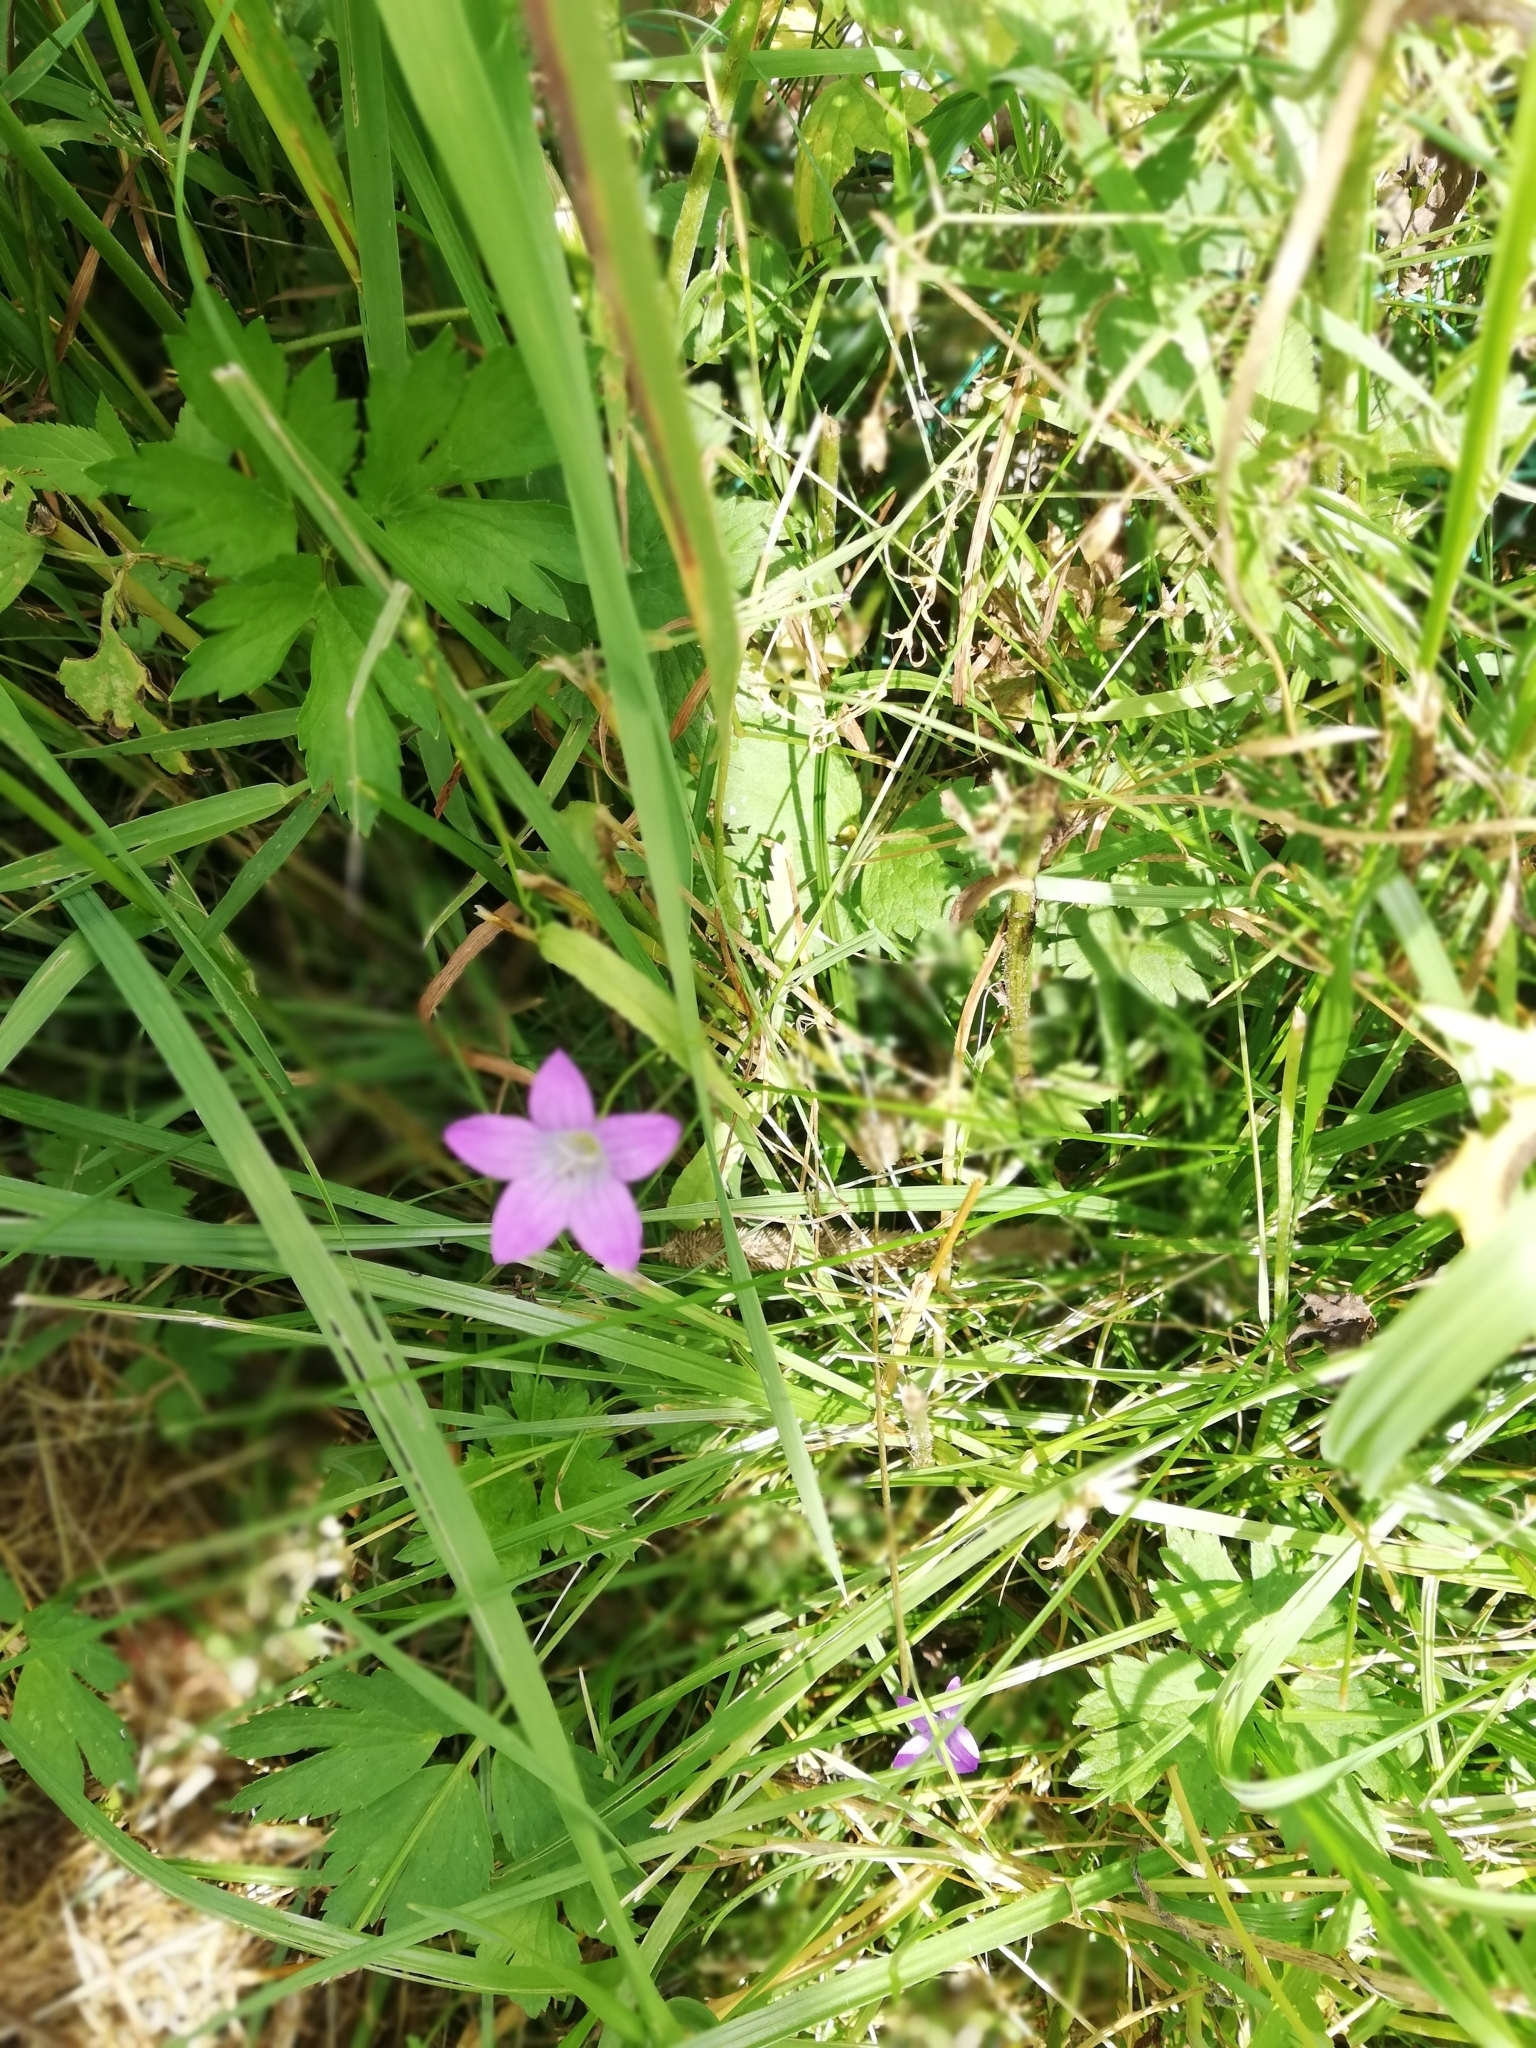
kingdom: Plantae
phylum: Tracheophyta
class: Magnoliopsida
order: Asterales
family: Campanulaceae
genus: Campanula
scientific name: Campanula patula
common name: Spreading bellflower
